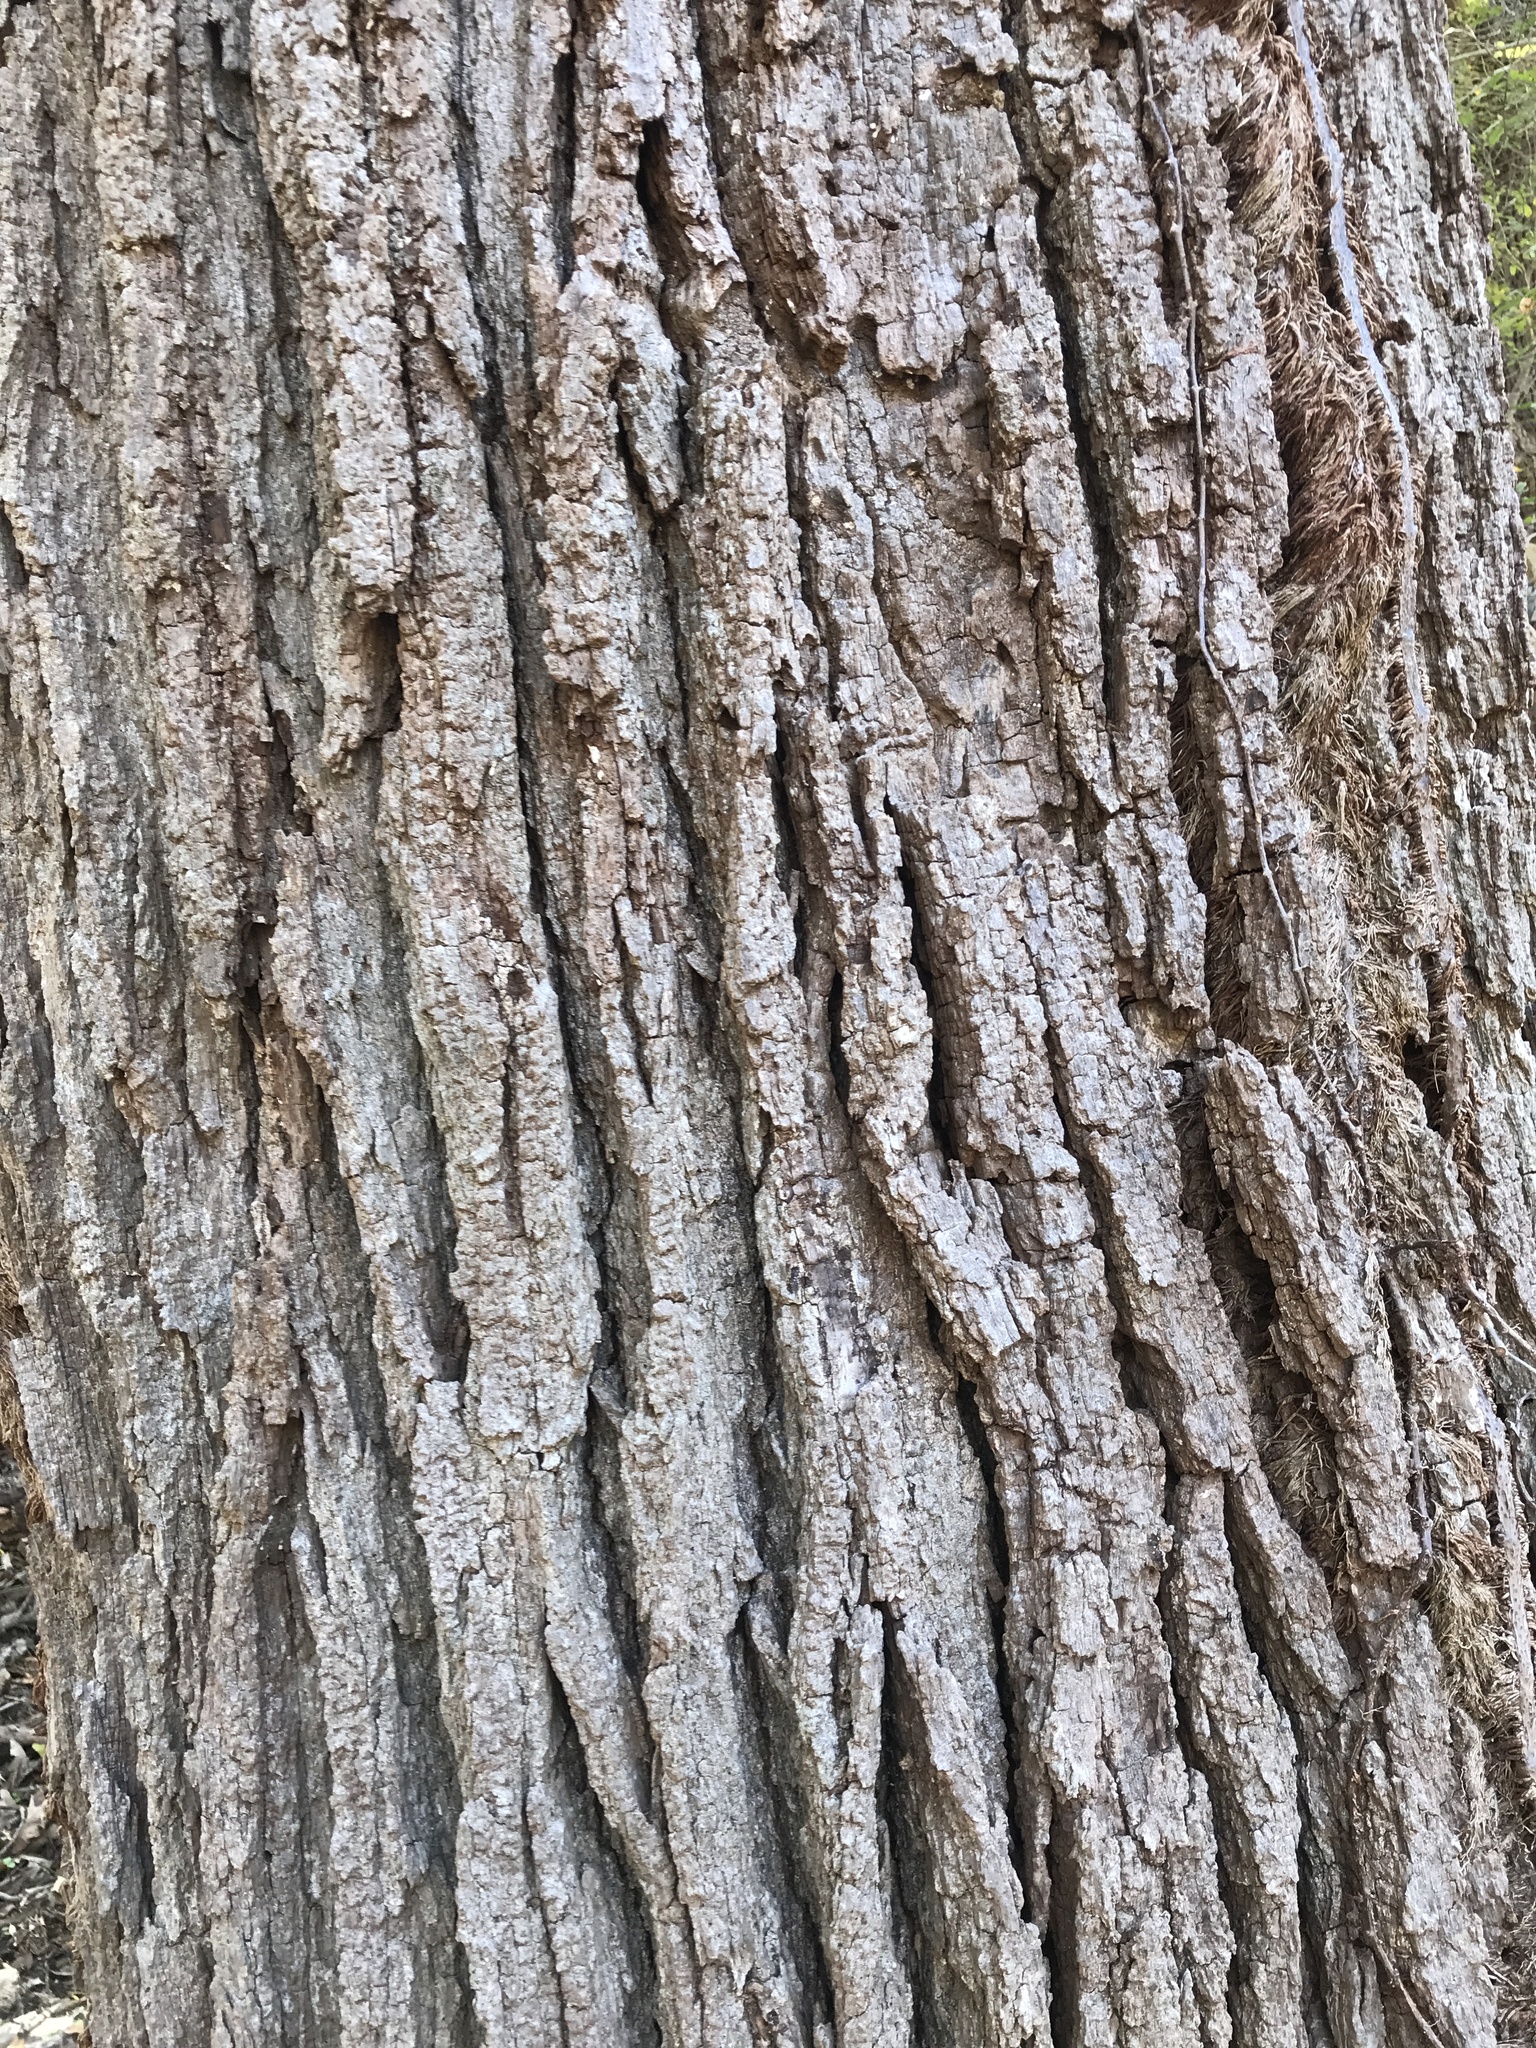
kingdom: Plantae
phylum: Tracheophyta
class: Magnoliopsida
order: Fagales
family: Fagaceae
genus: Quercus
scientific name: Quercus macrocarpa
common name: Bur oak
